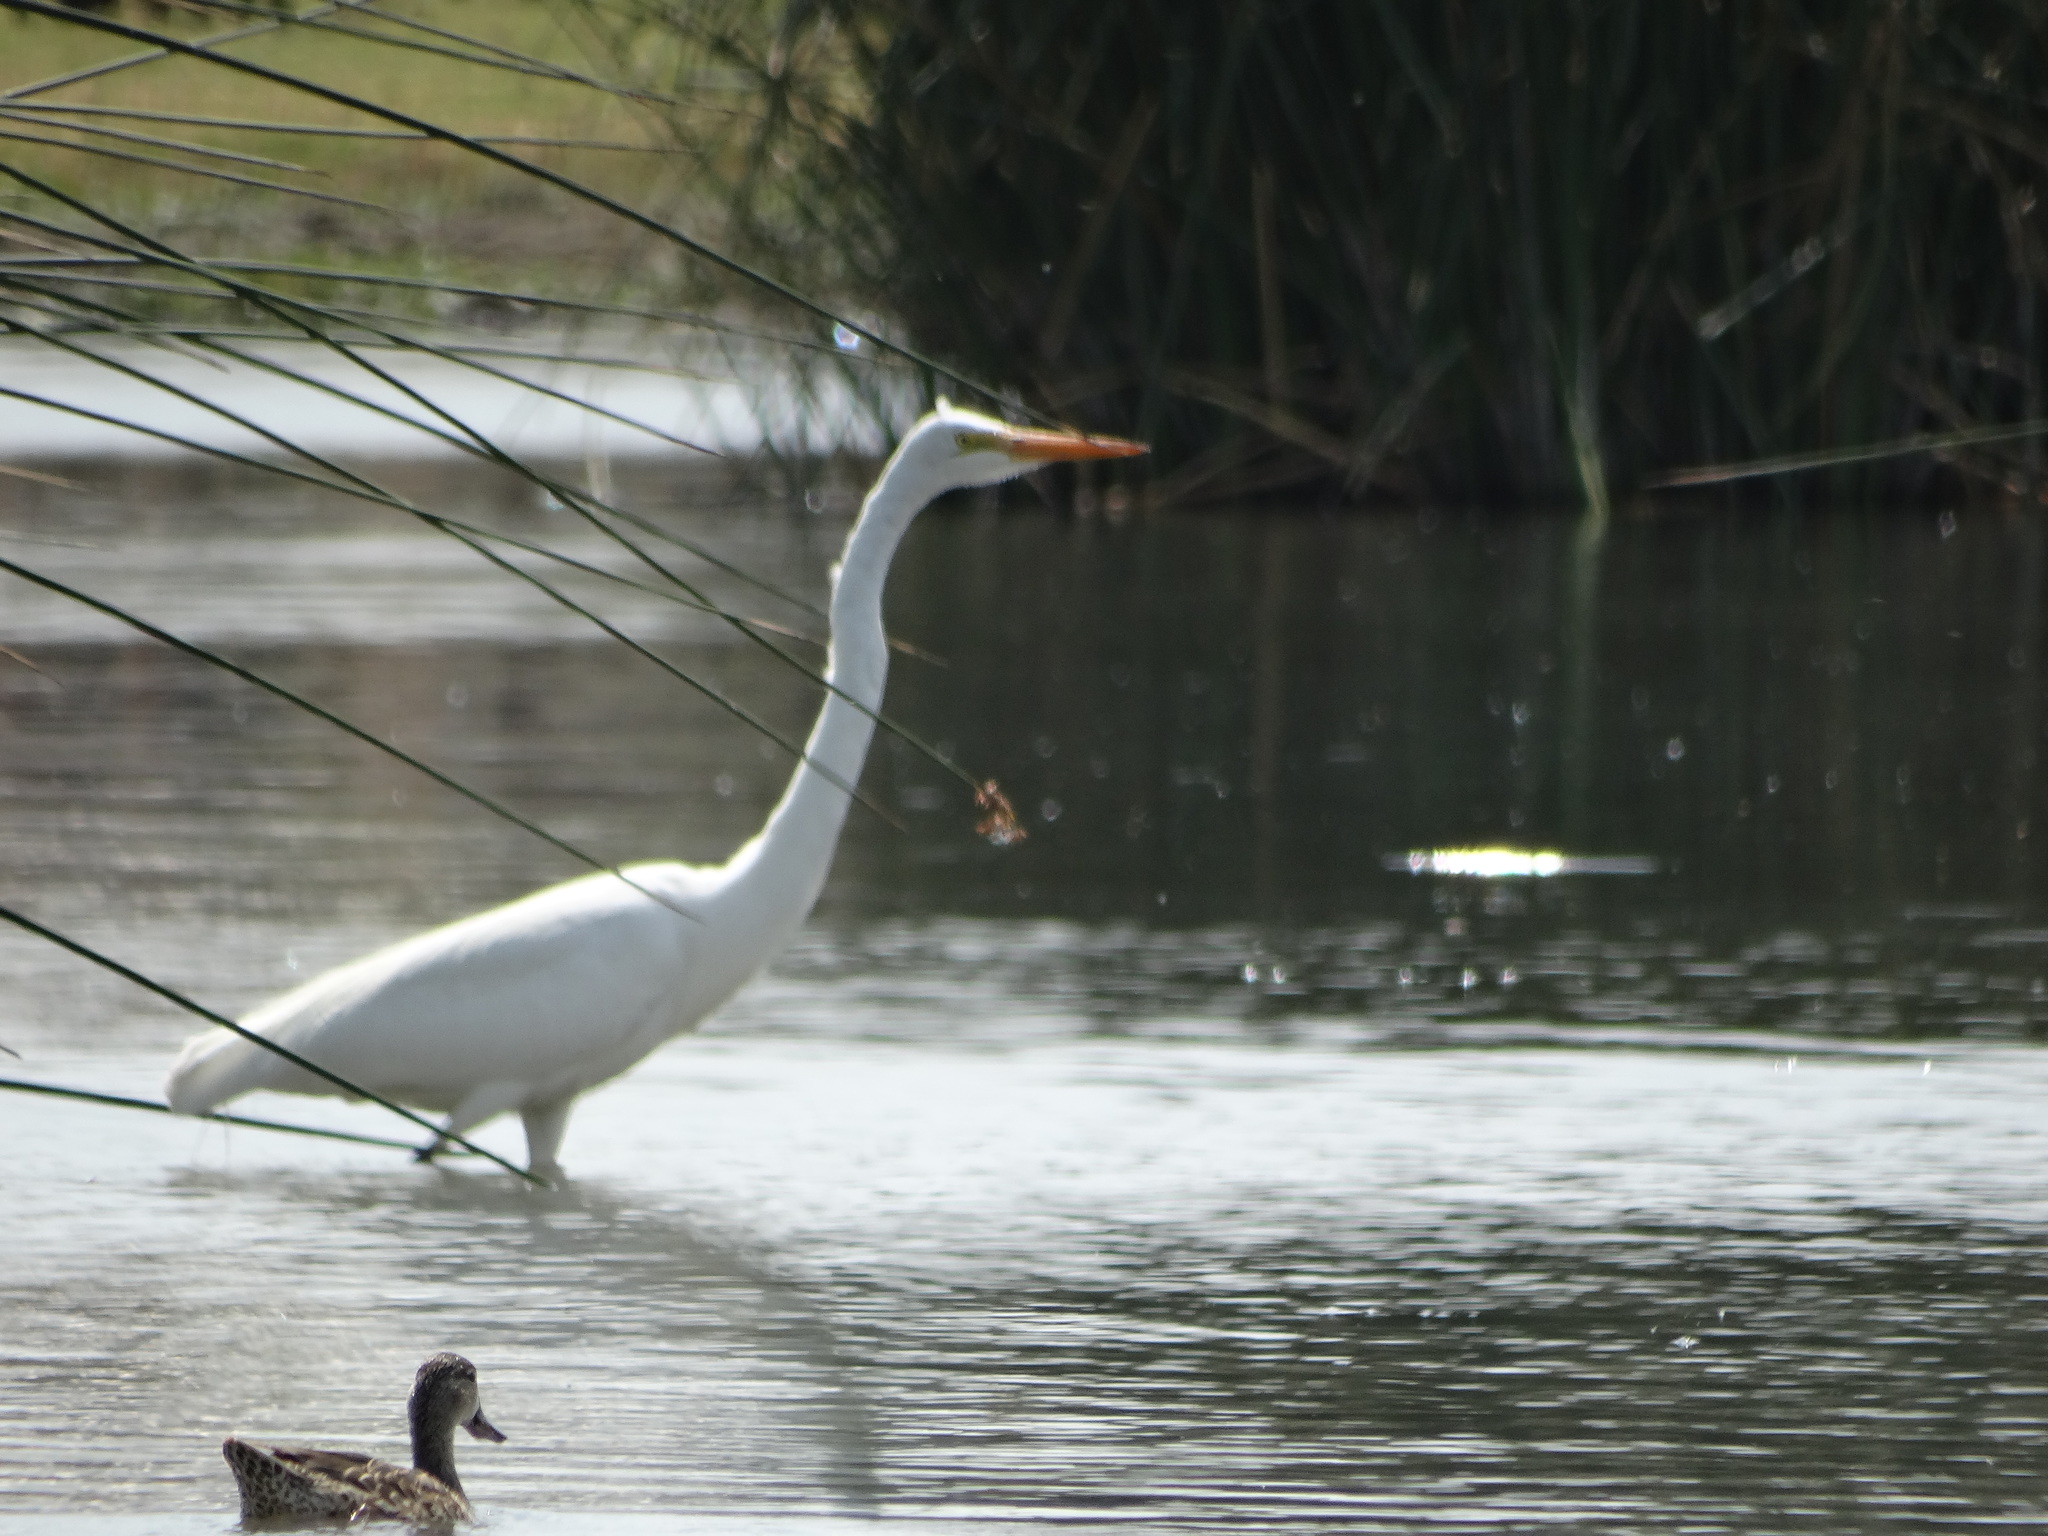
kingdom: Animalia
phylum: Chordata
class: Aves
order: Pelecaniformes
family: Ardeidae
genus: Ardea
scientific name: Ardea alba
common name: Great egret
